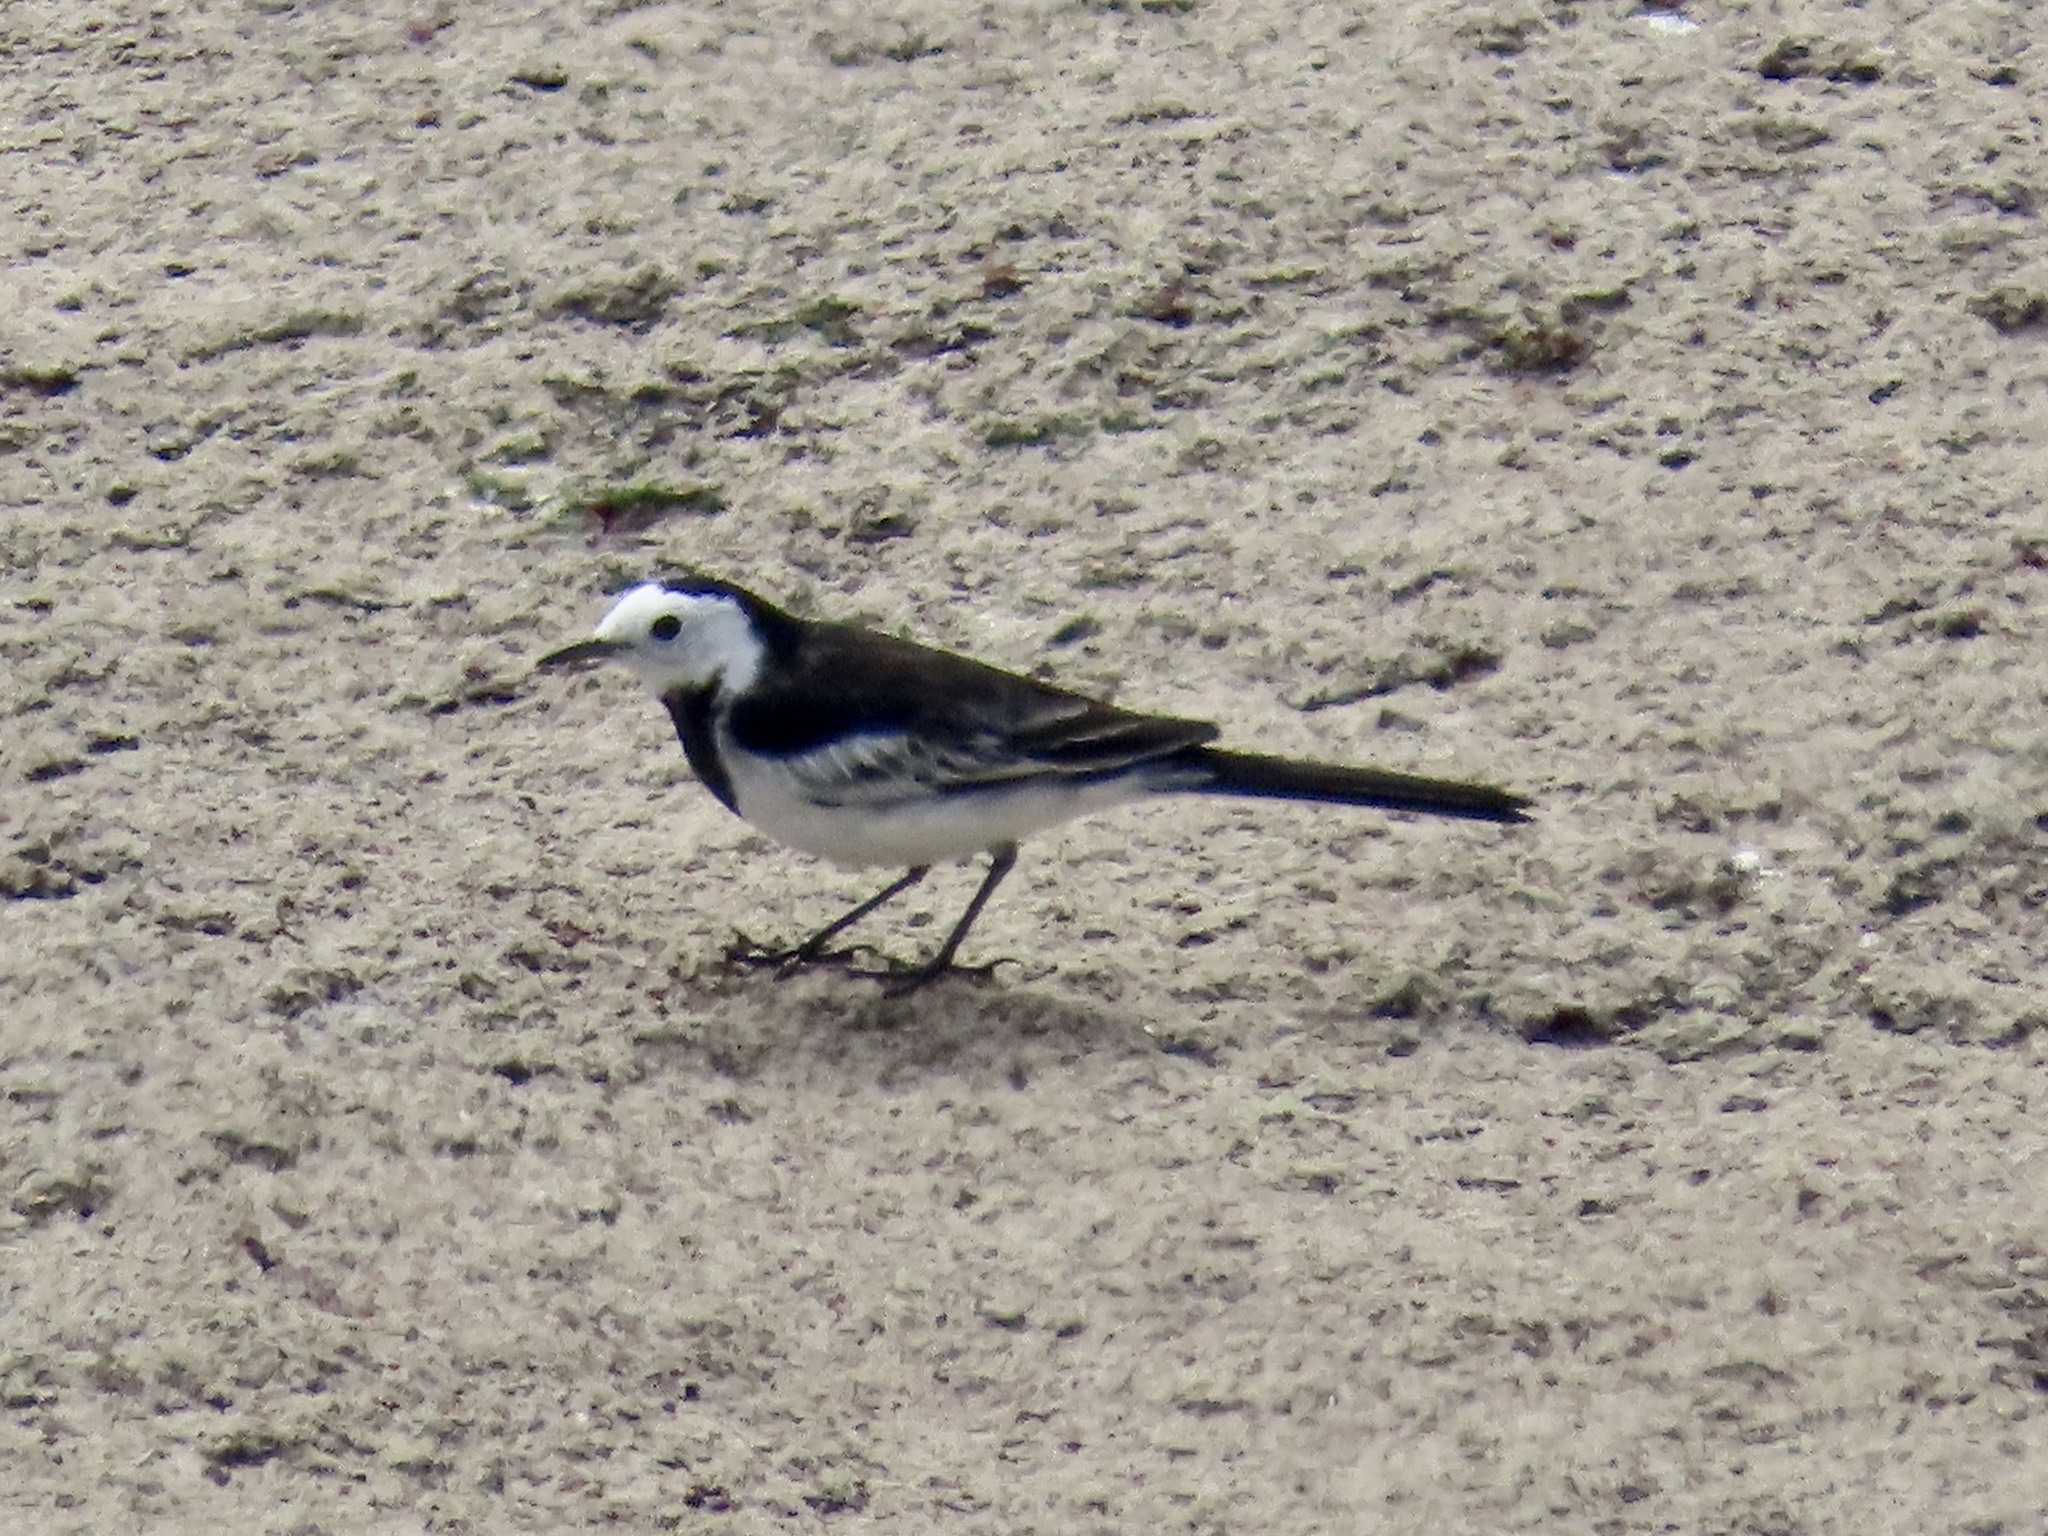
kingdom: Animalia
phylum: Chordata
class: Aves
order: Passeriformes
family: Motacillidae
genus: Motacilla
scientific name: Motacilla alba
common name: White wagtail
